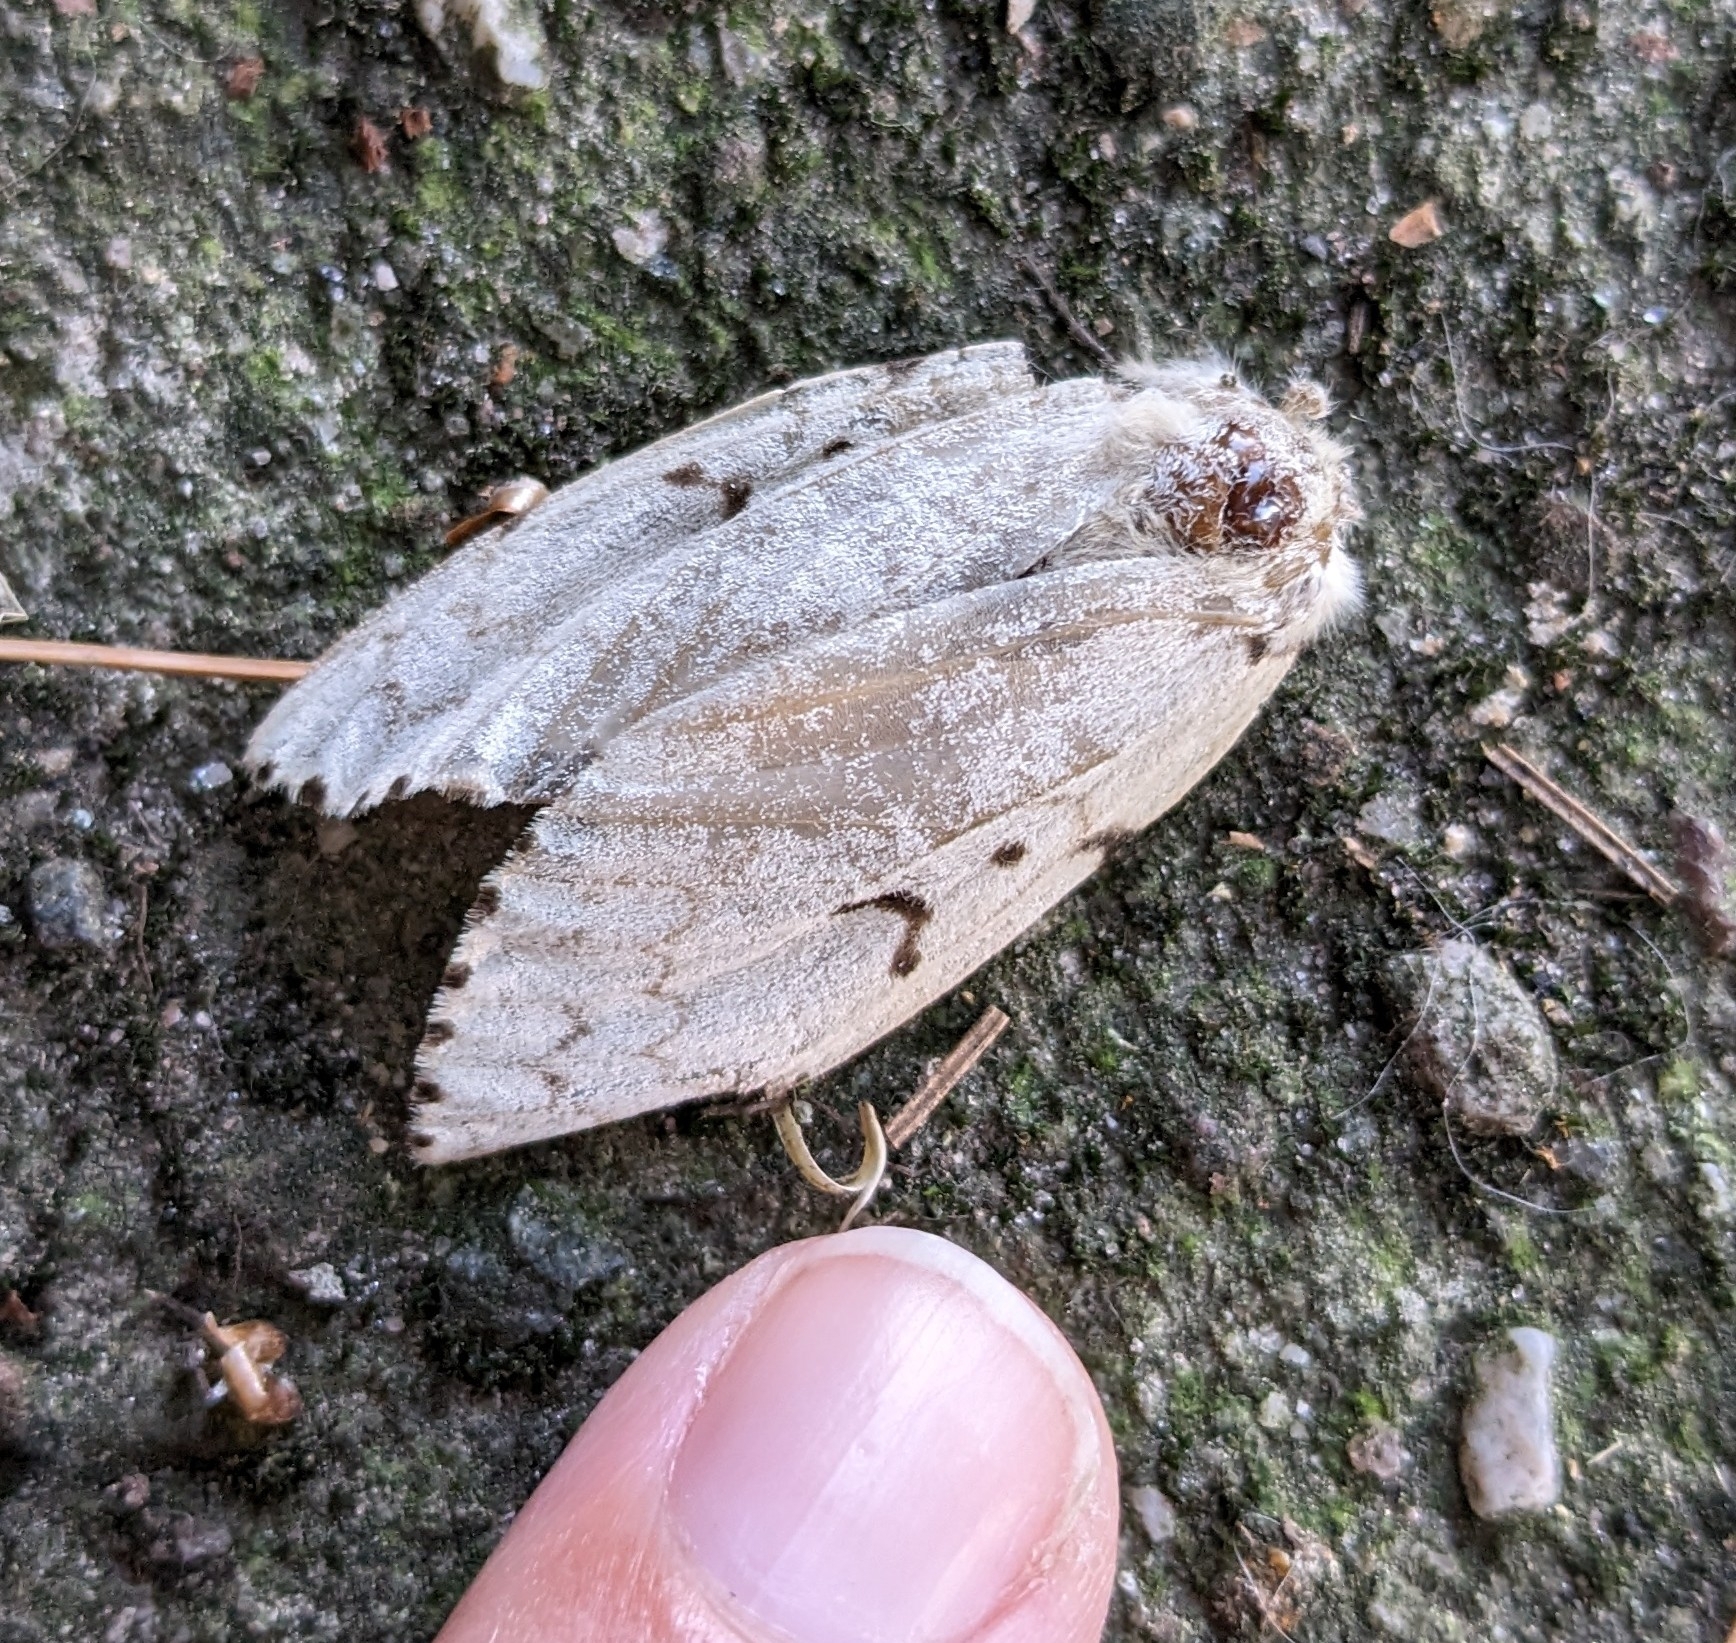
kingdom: Animalia
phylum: Arthropoda
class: Insecta
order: Lepidoptera
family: Erebidae
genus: Lymantria
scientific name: Lymantria dispar
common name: Gypsy moth
